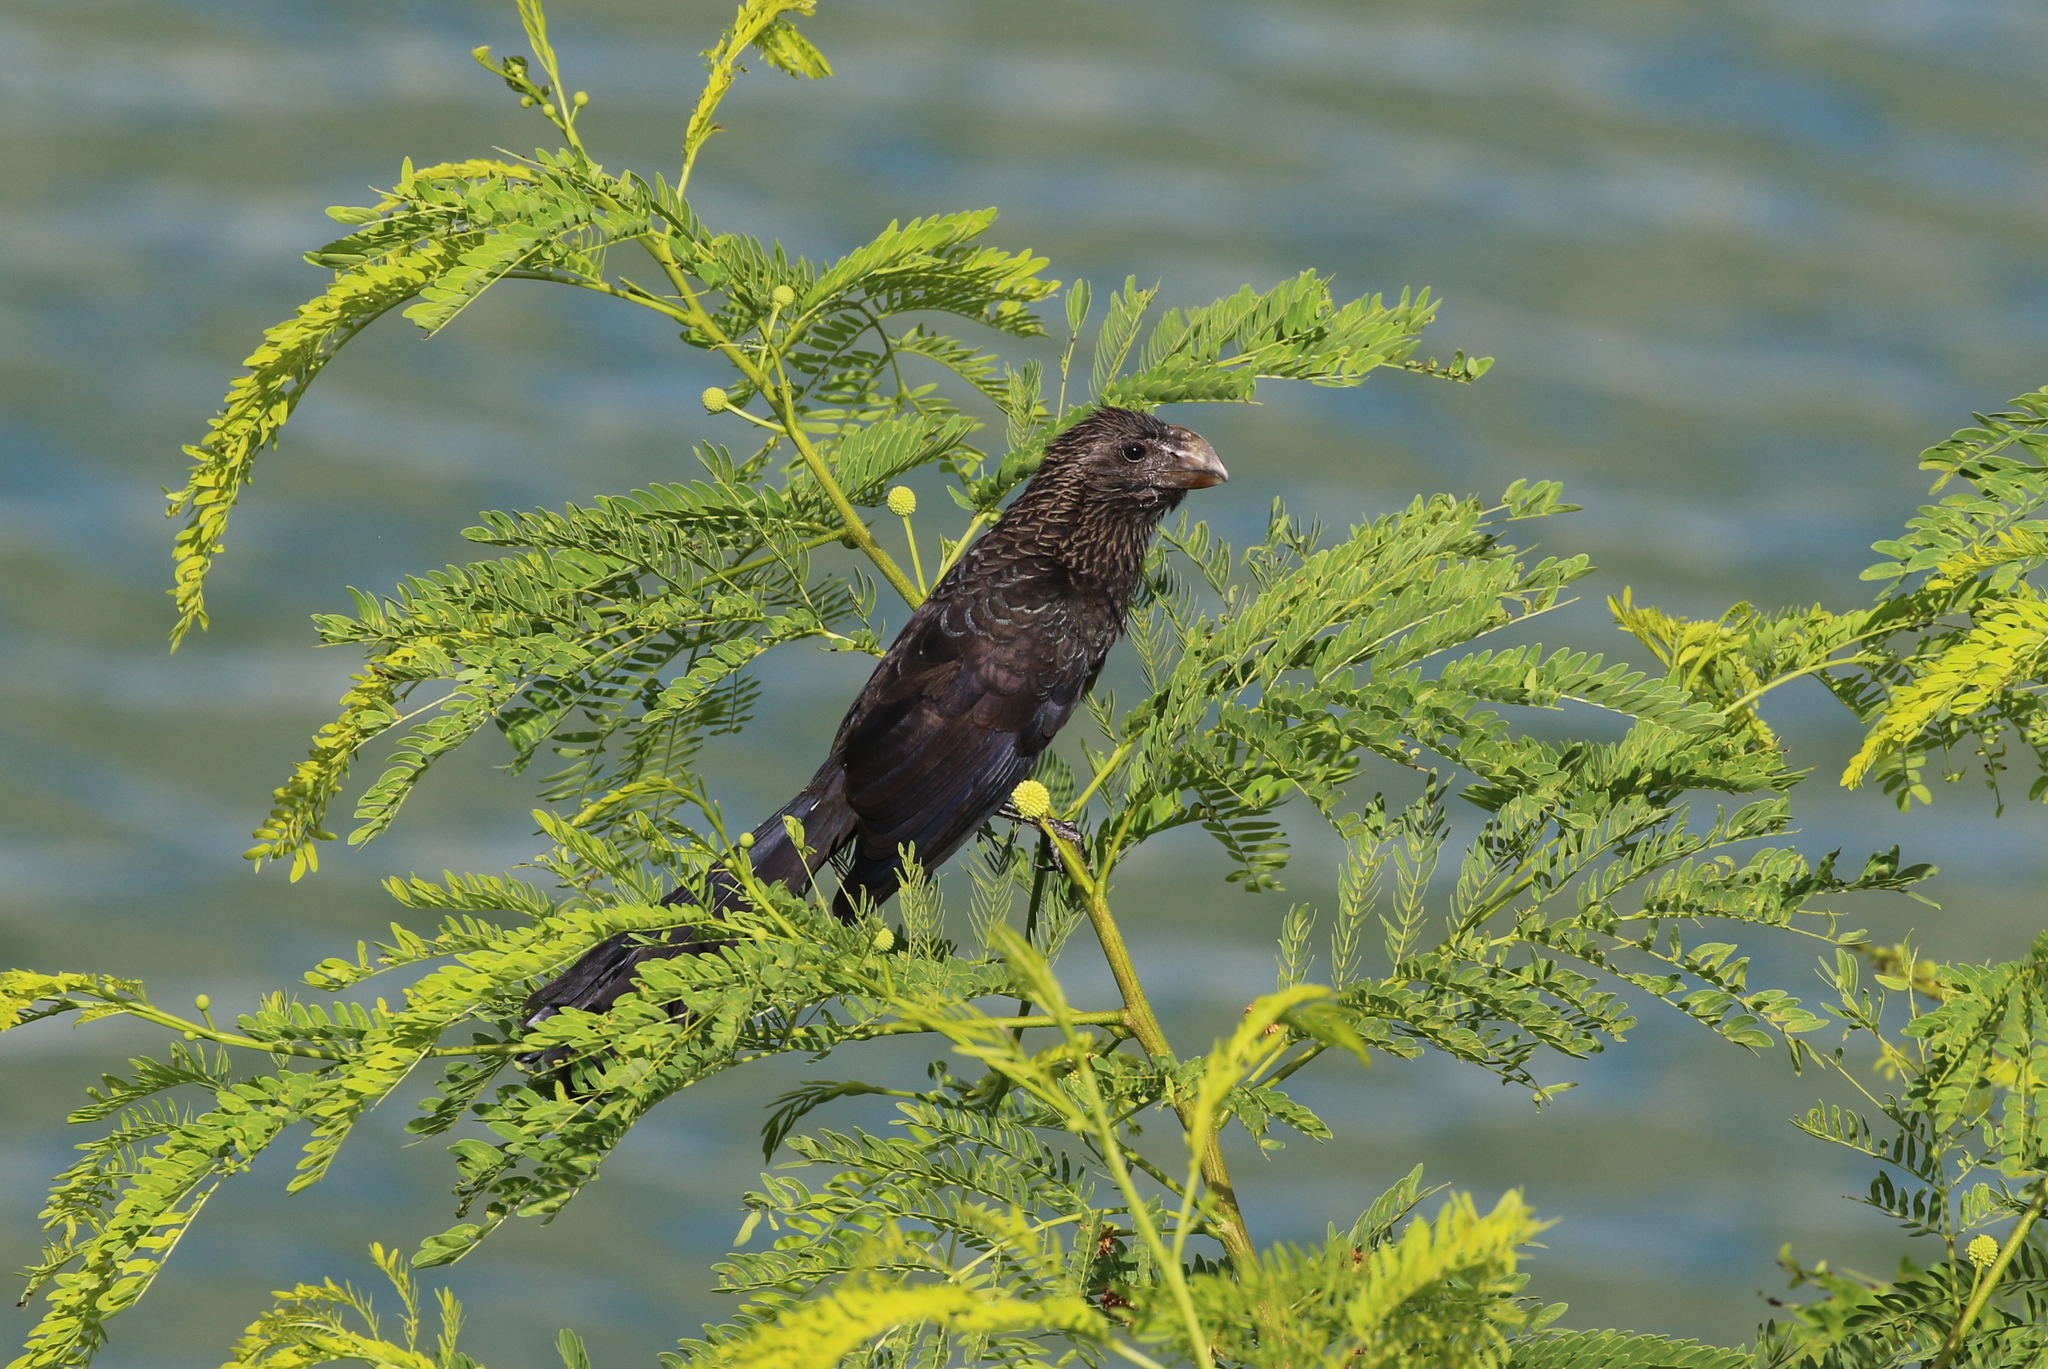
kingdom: Animalia
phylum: Chordata
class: Aves
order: Cuculiformes
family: Cuculidae
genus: Crotophaga
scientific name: Crotophaga ani
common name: Smooth-billed ani
